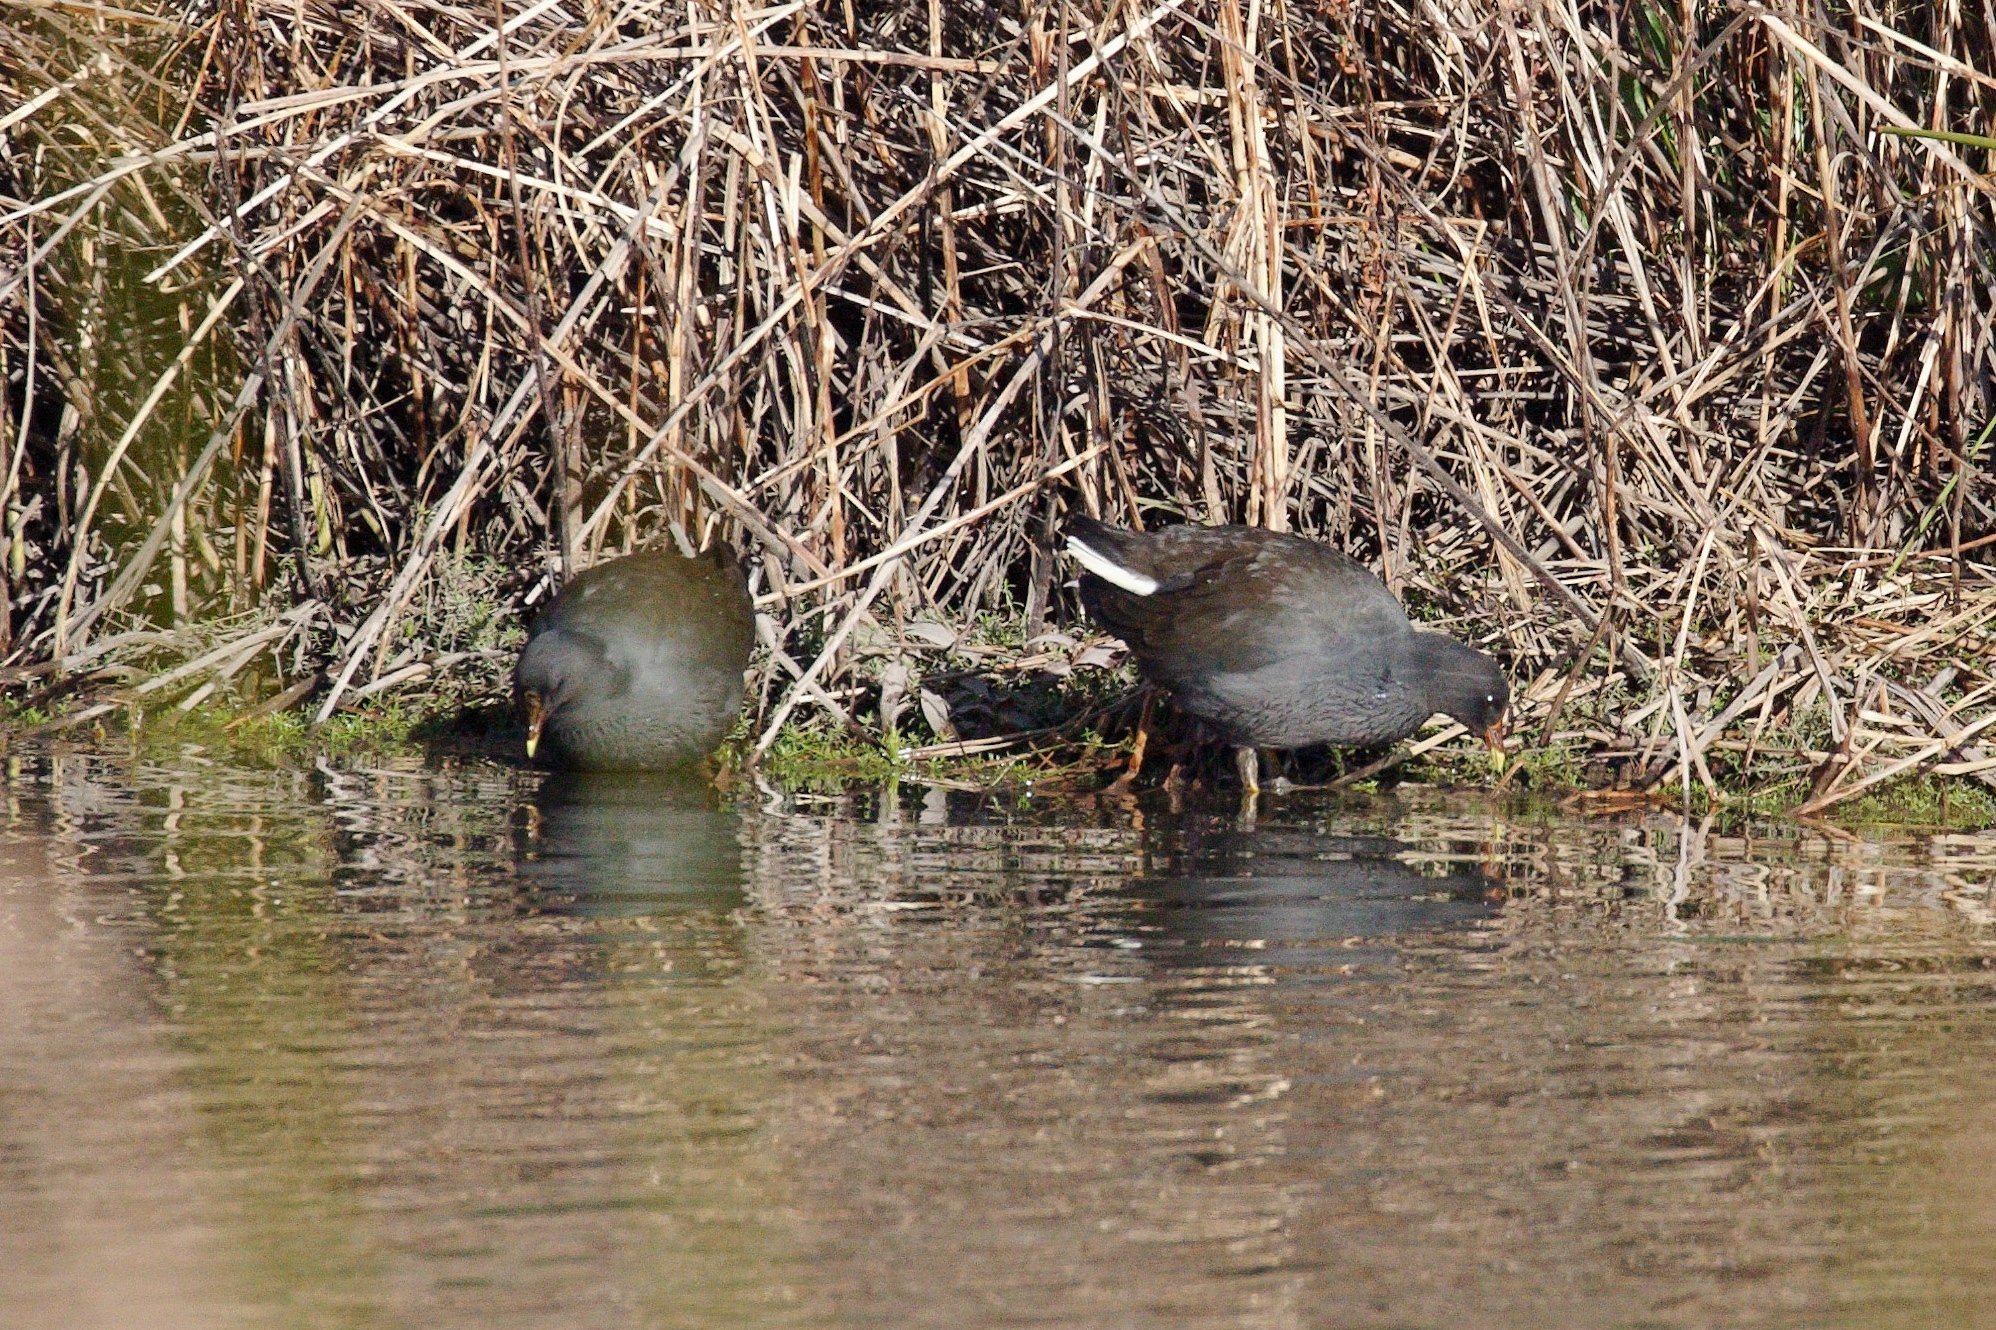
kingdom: Animalia
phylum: Chordata
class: Aves
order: Gruiformes
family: Rallidae
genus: Gallinula
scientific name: Gallinula tenebrosa
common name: Dusky moorhen
